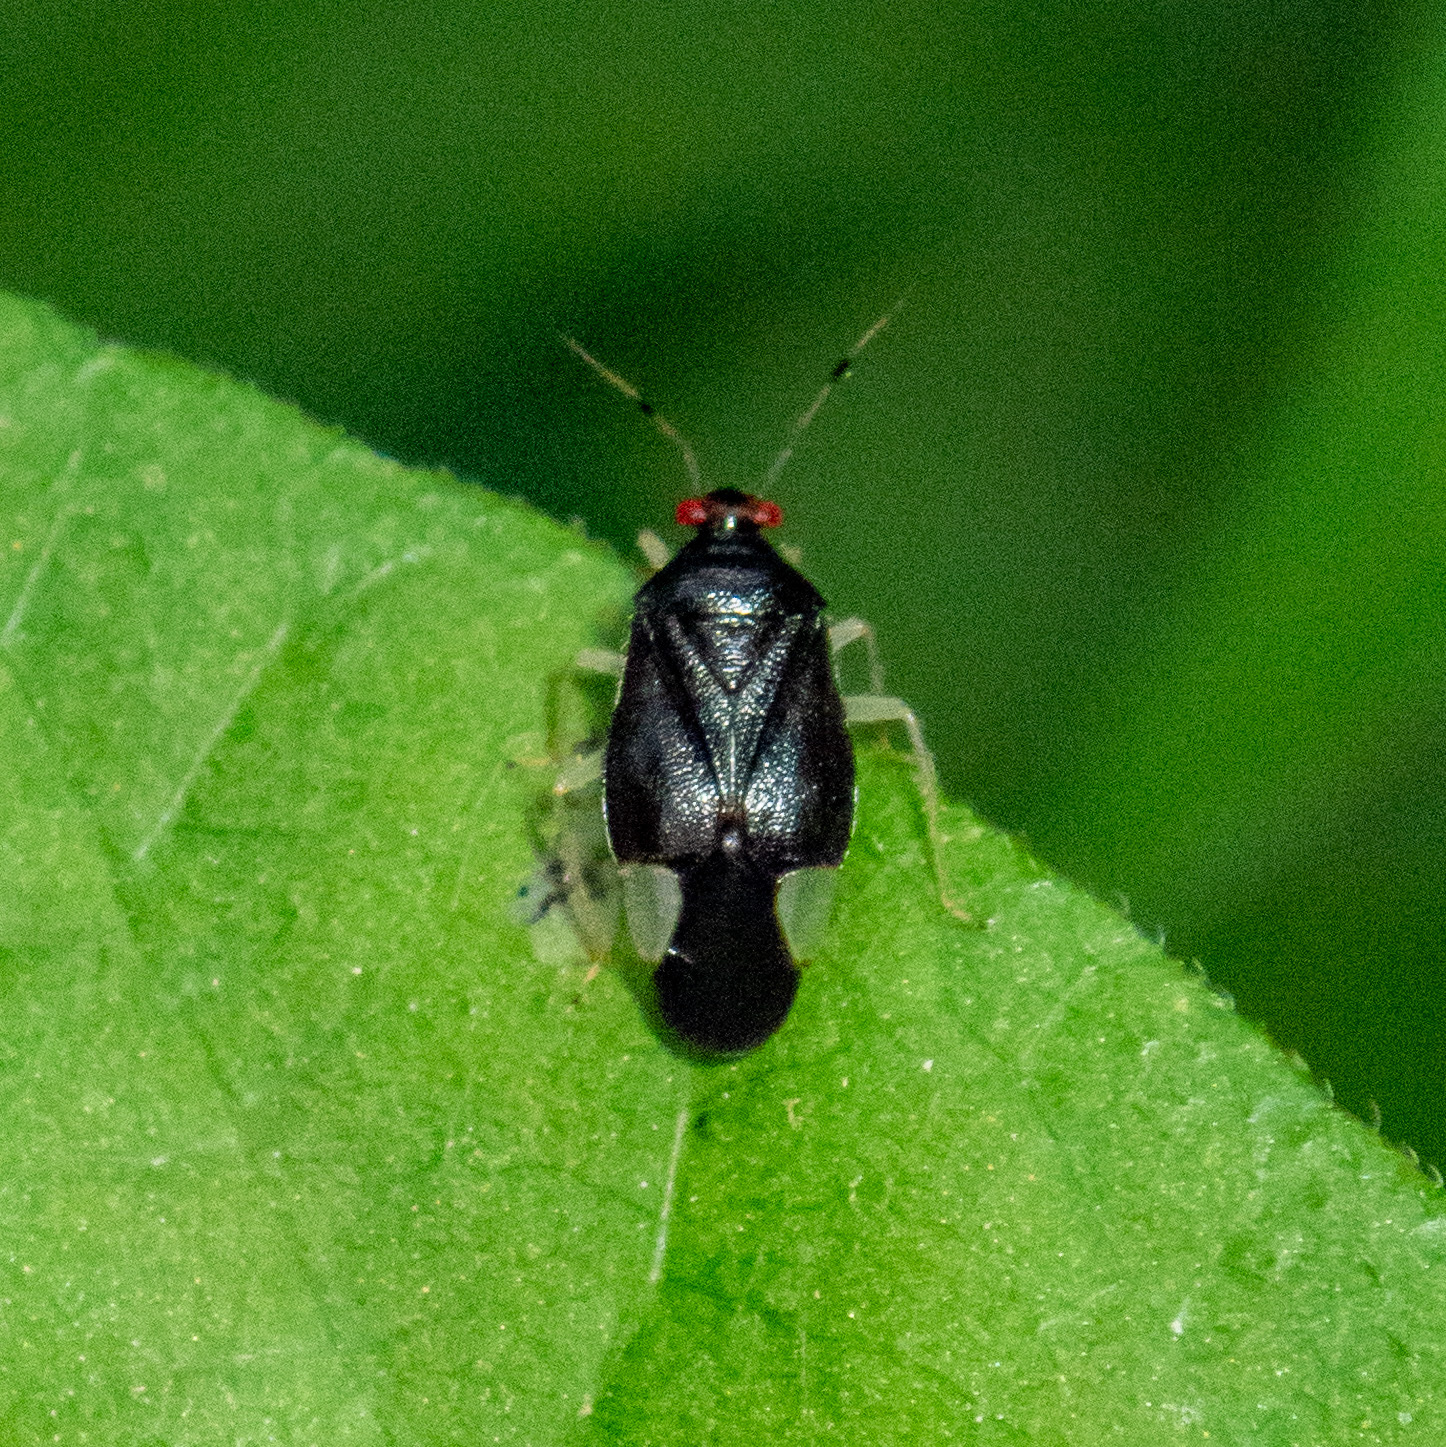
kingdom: Animalia
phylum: Arthropoda
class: Insecta
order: Hemiptera
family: Miridae
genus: Tropidosteptes
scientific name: Tropidosteptes tricolor
